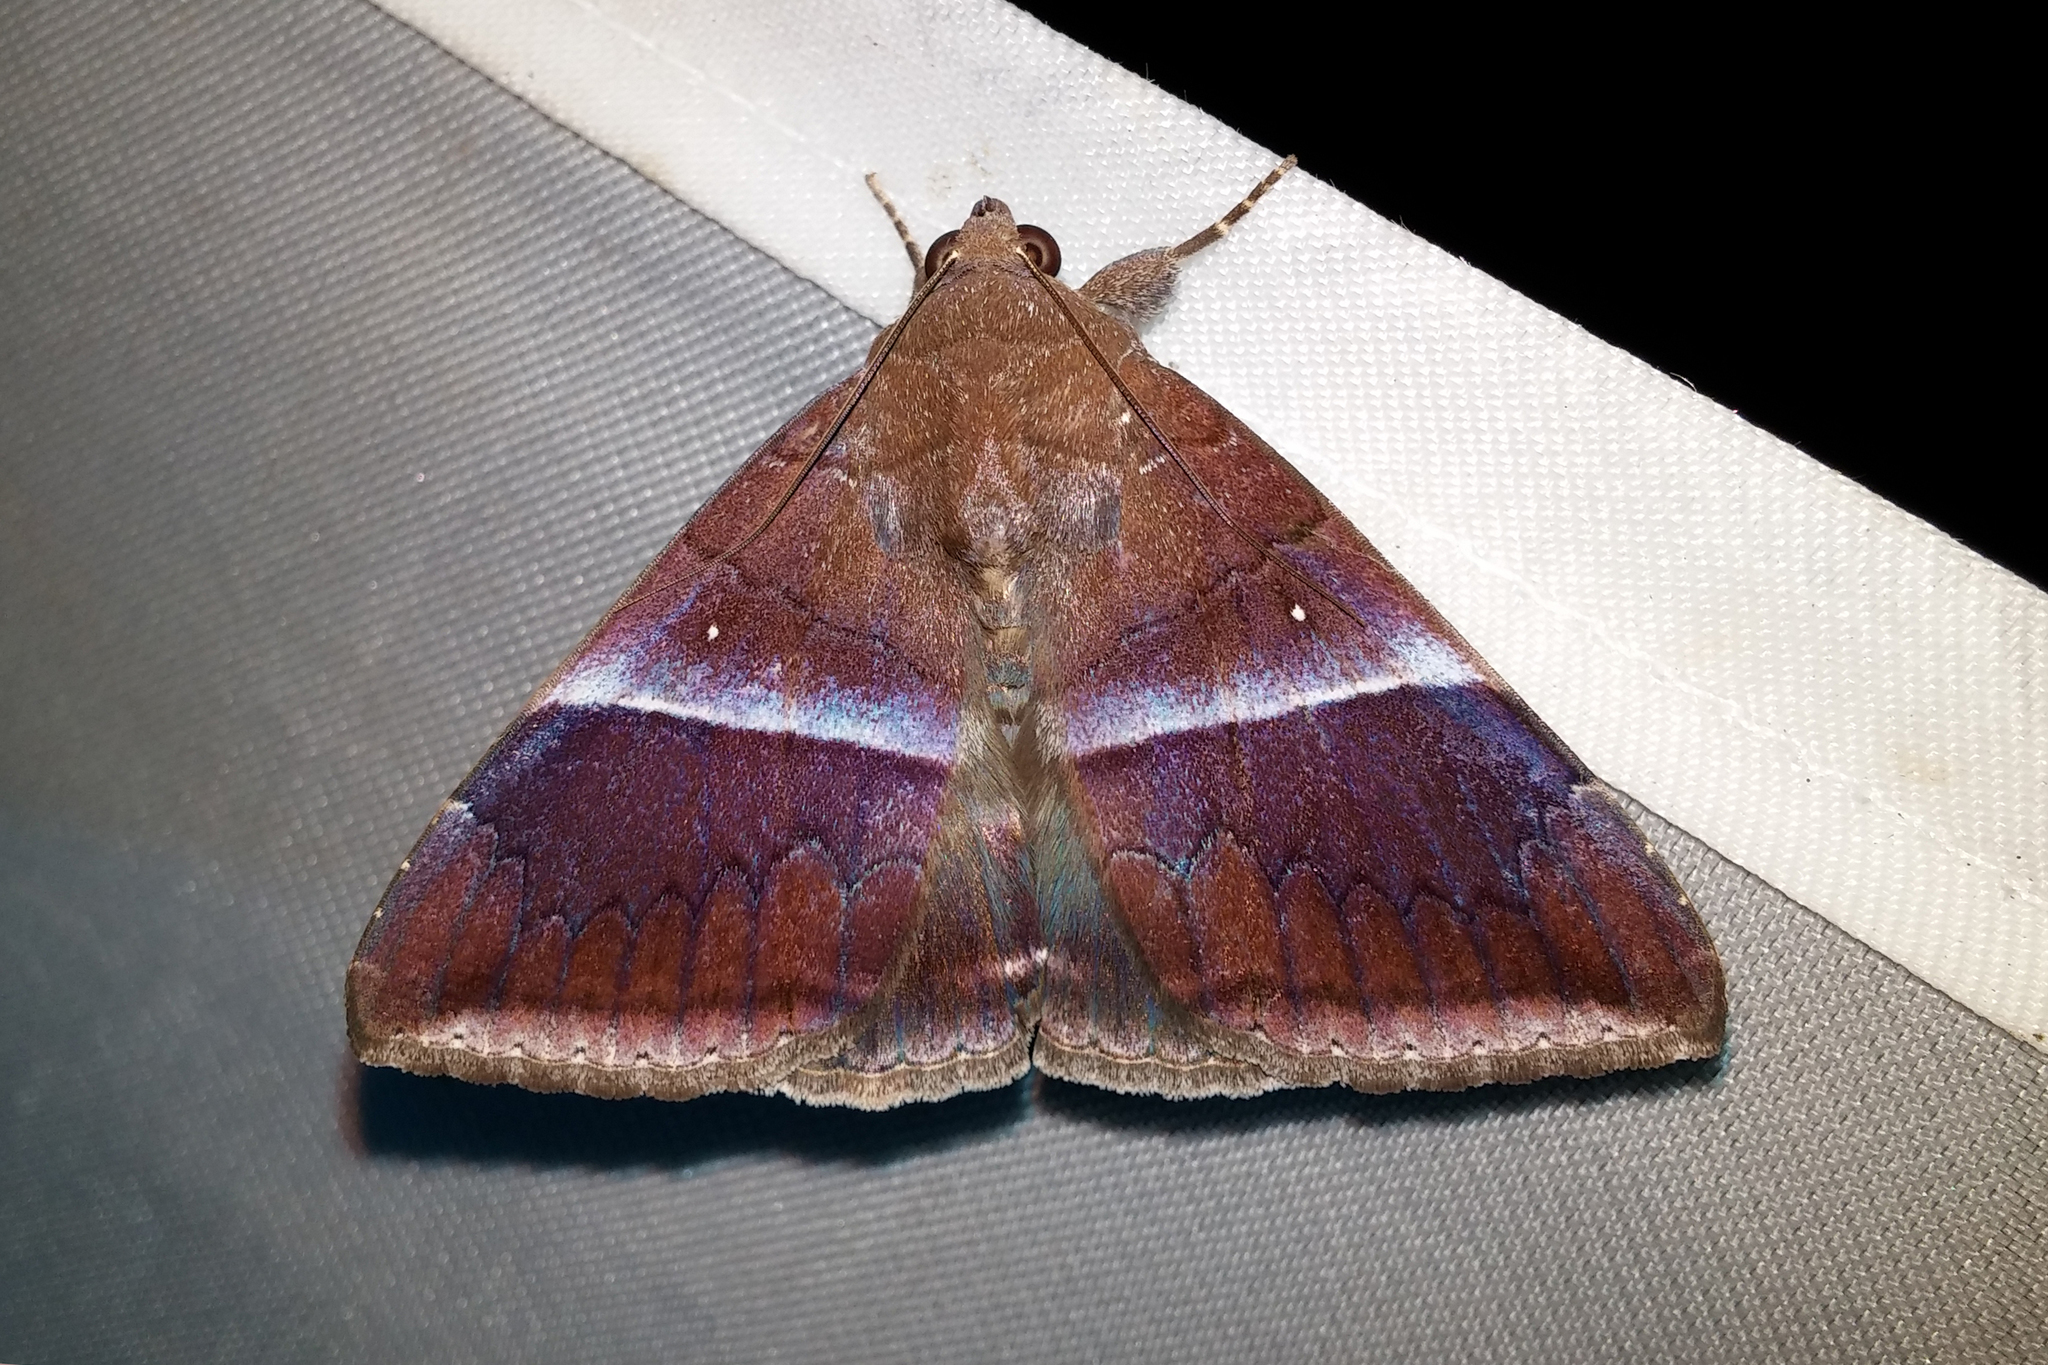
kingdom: Animalia
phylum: Arthropoda
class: Insecta
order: Lepidoptera
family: Erebidae
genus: Parallelia
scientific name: Parallelia
